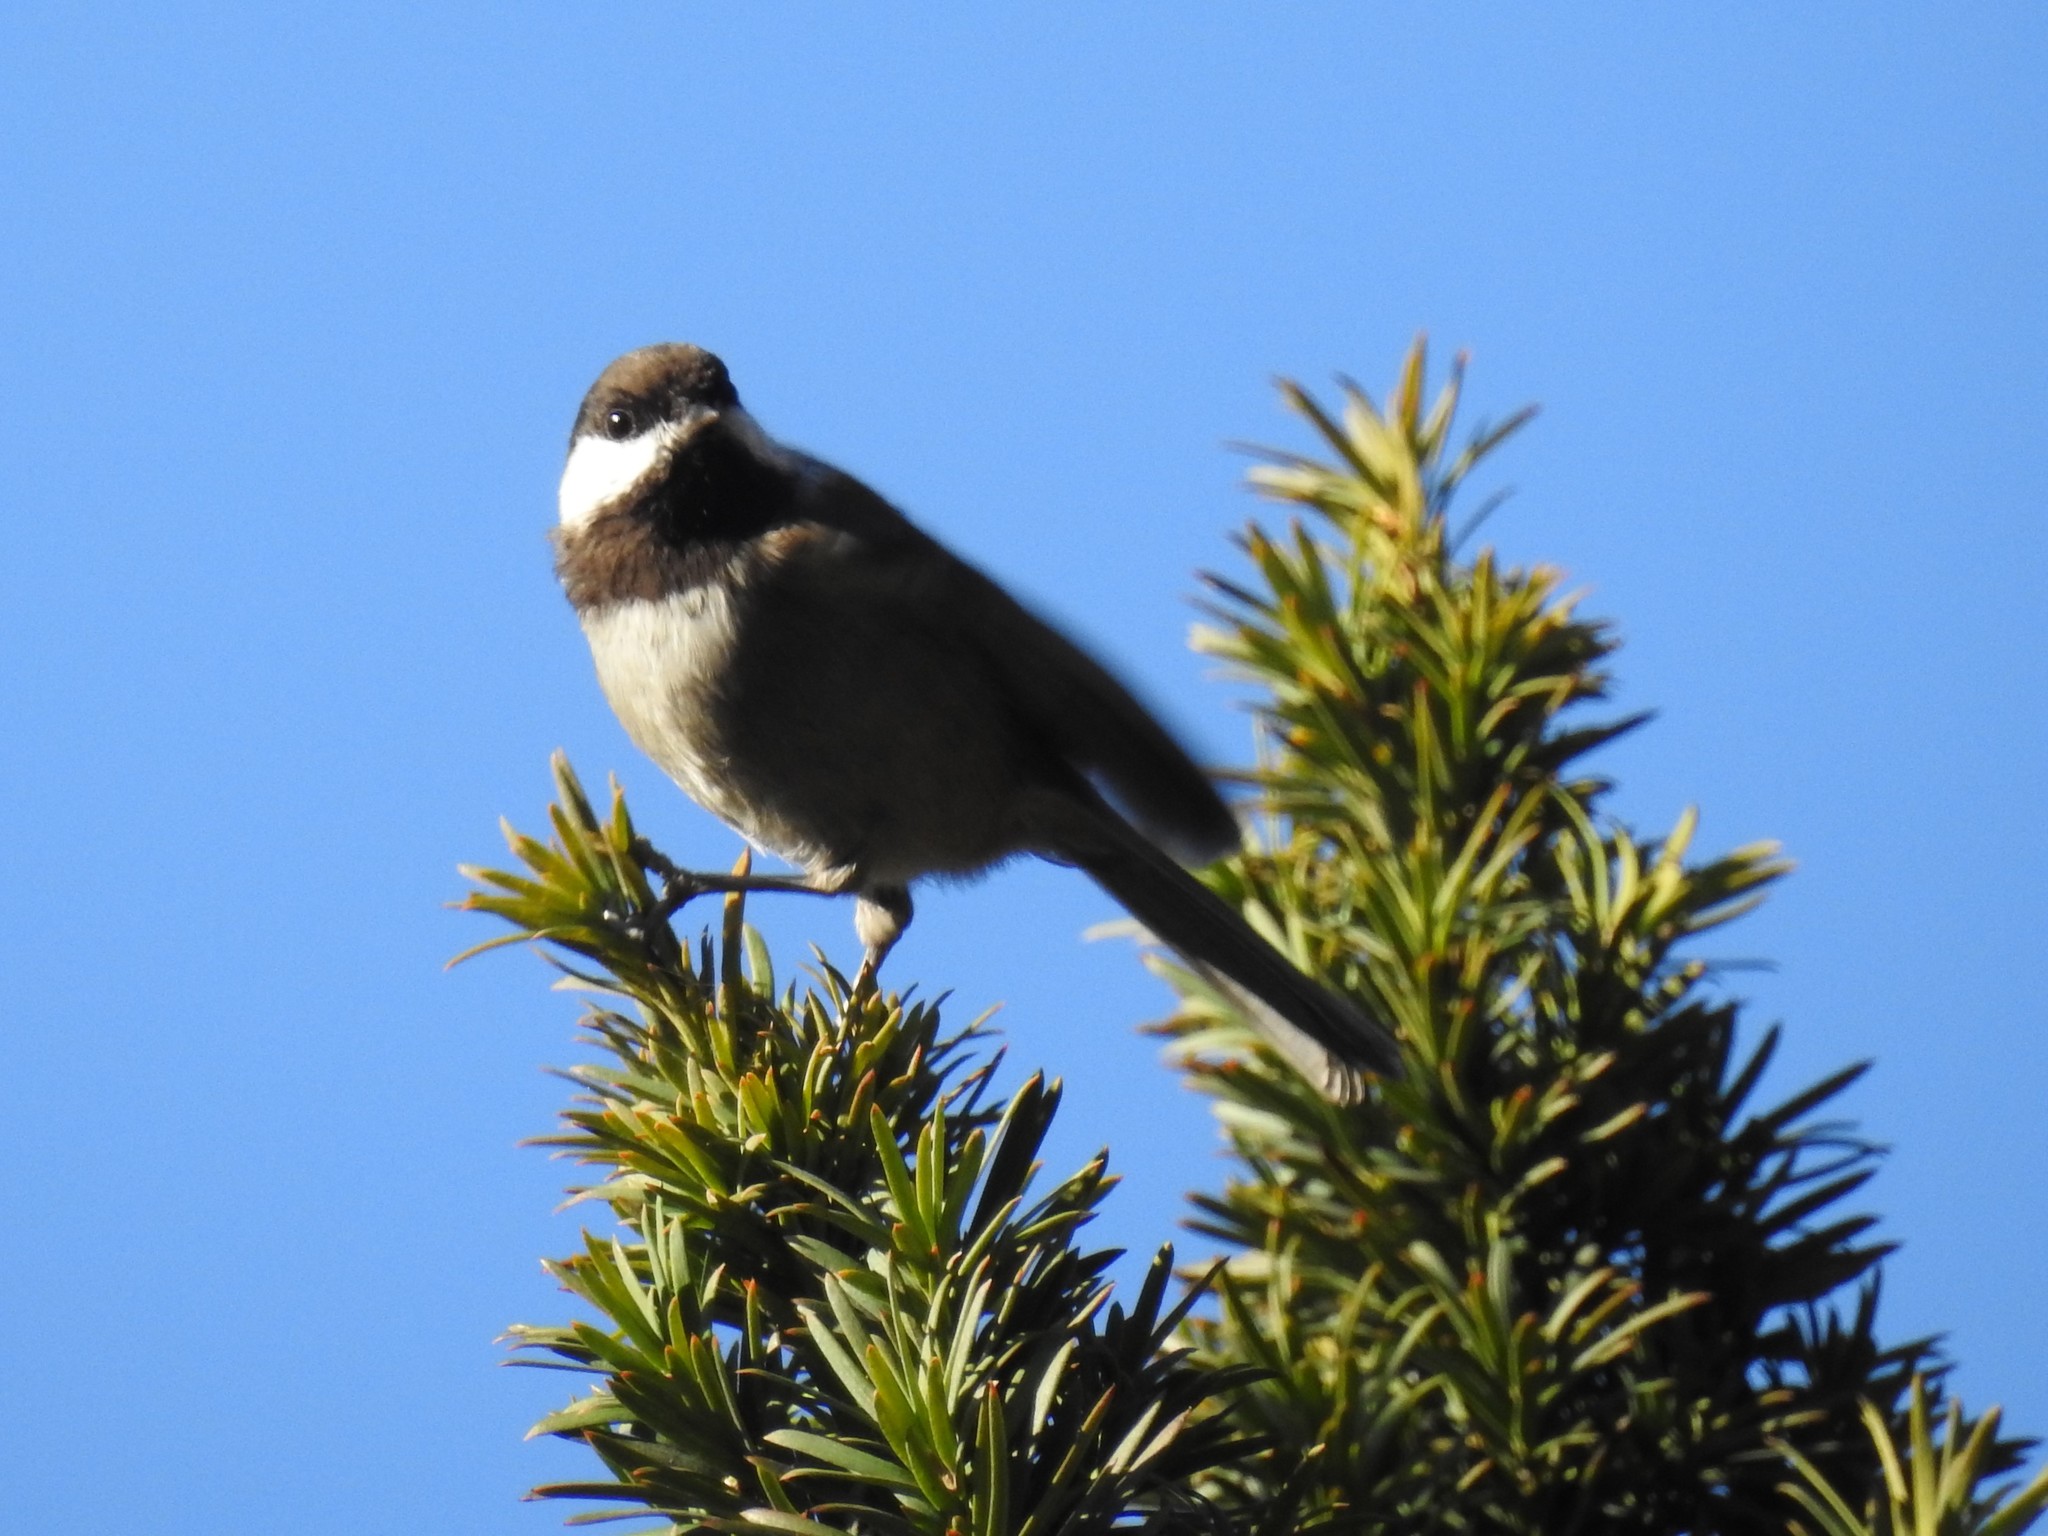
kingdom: Animalia
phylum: Chordata
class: Aves
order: Passeriformes
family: Paridae
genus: Poecile
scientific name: Poecile rufescens
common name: Chestnut-backed chickadee
